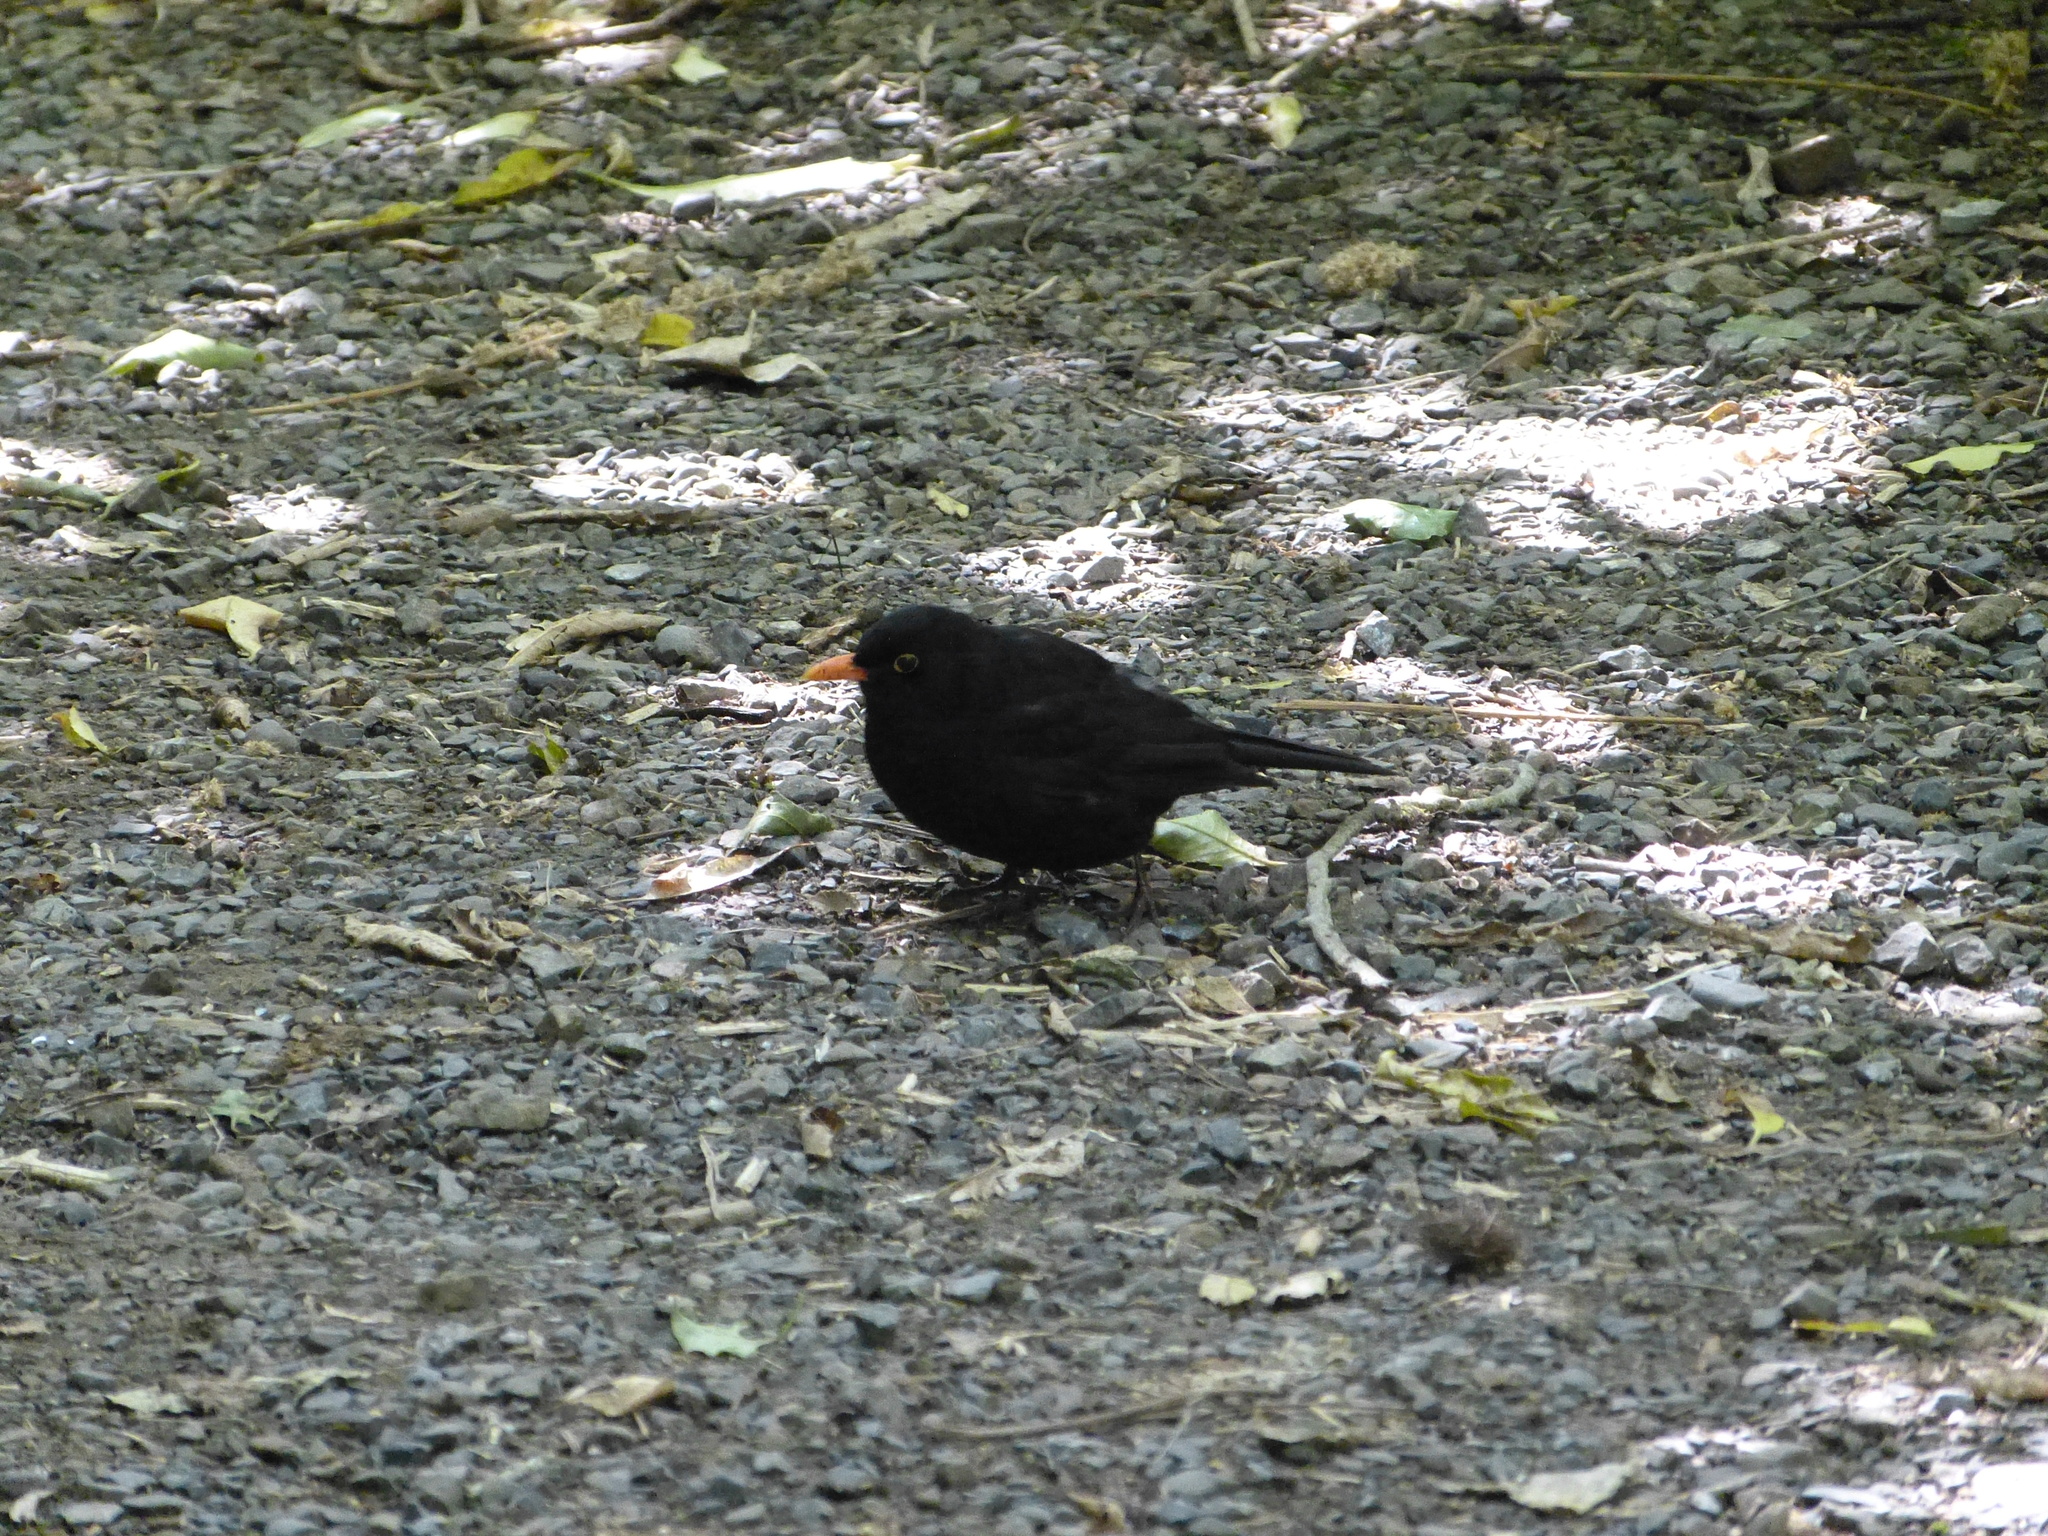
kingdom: Animalia
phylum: Chordata
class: Aves
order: Passeriformes
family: Turdidae
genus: Turdus
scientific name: Turdus merula
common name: Common blackbird
